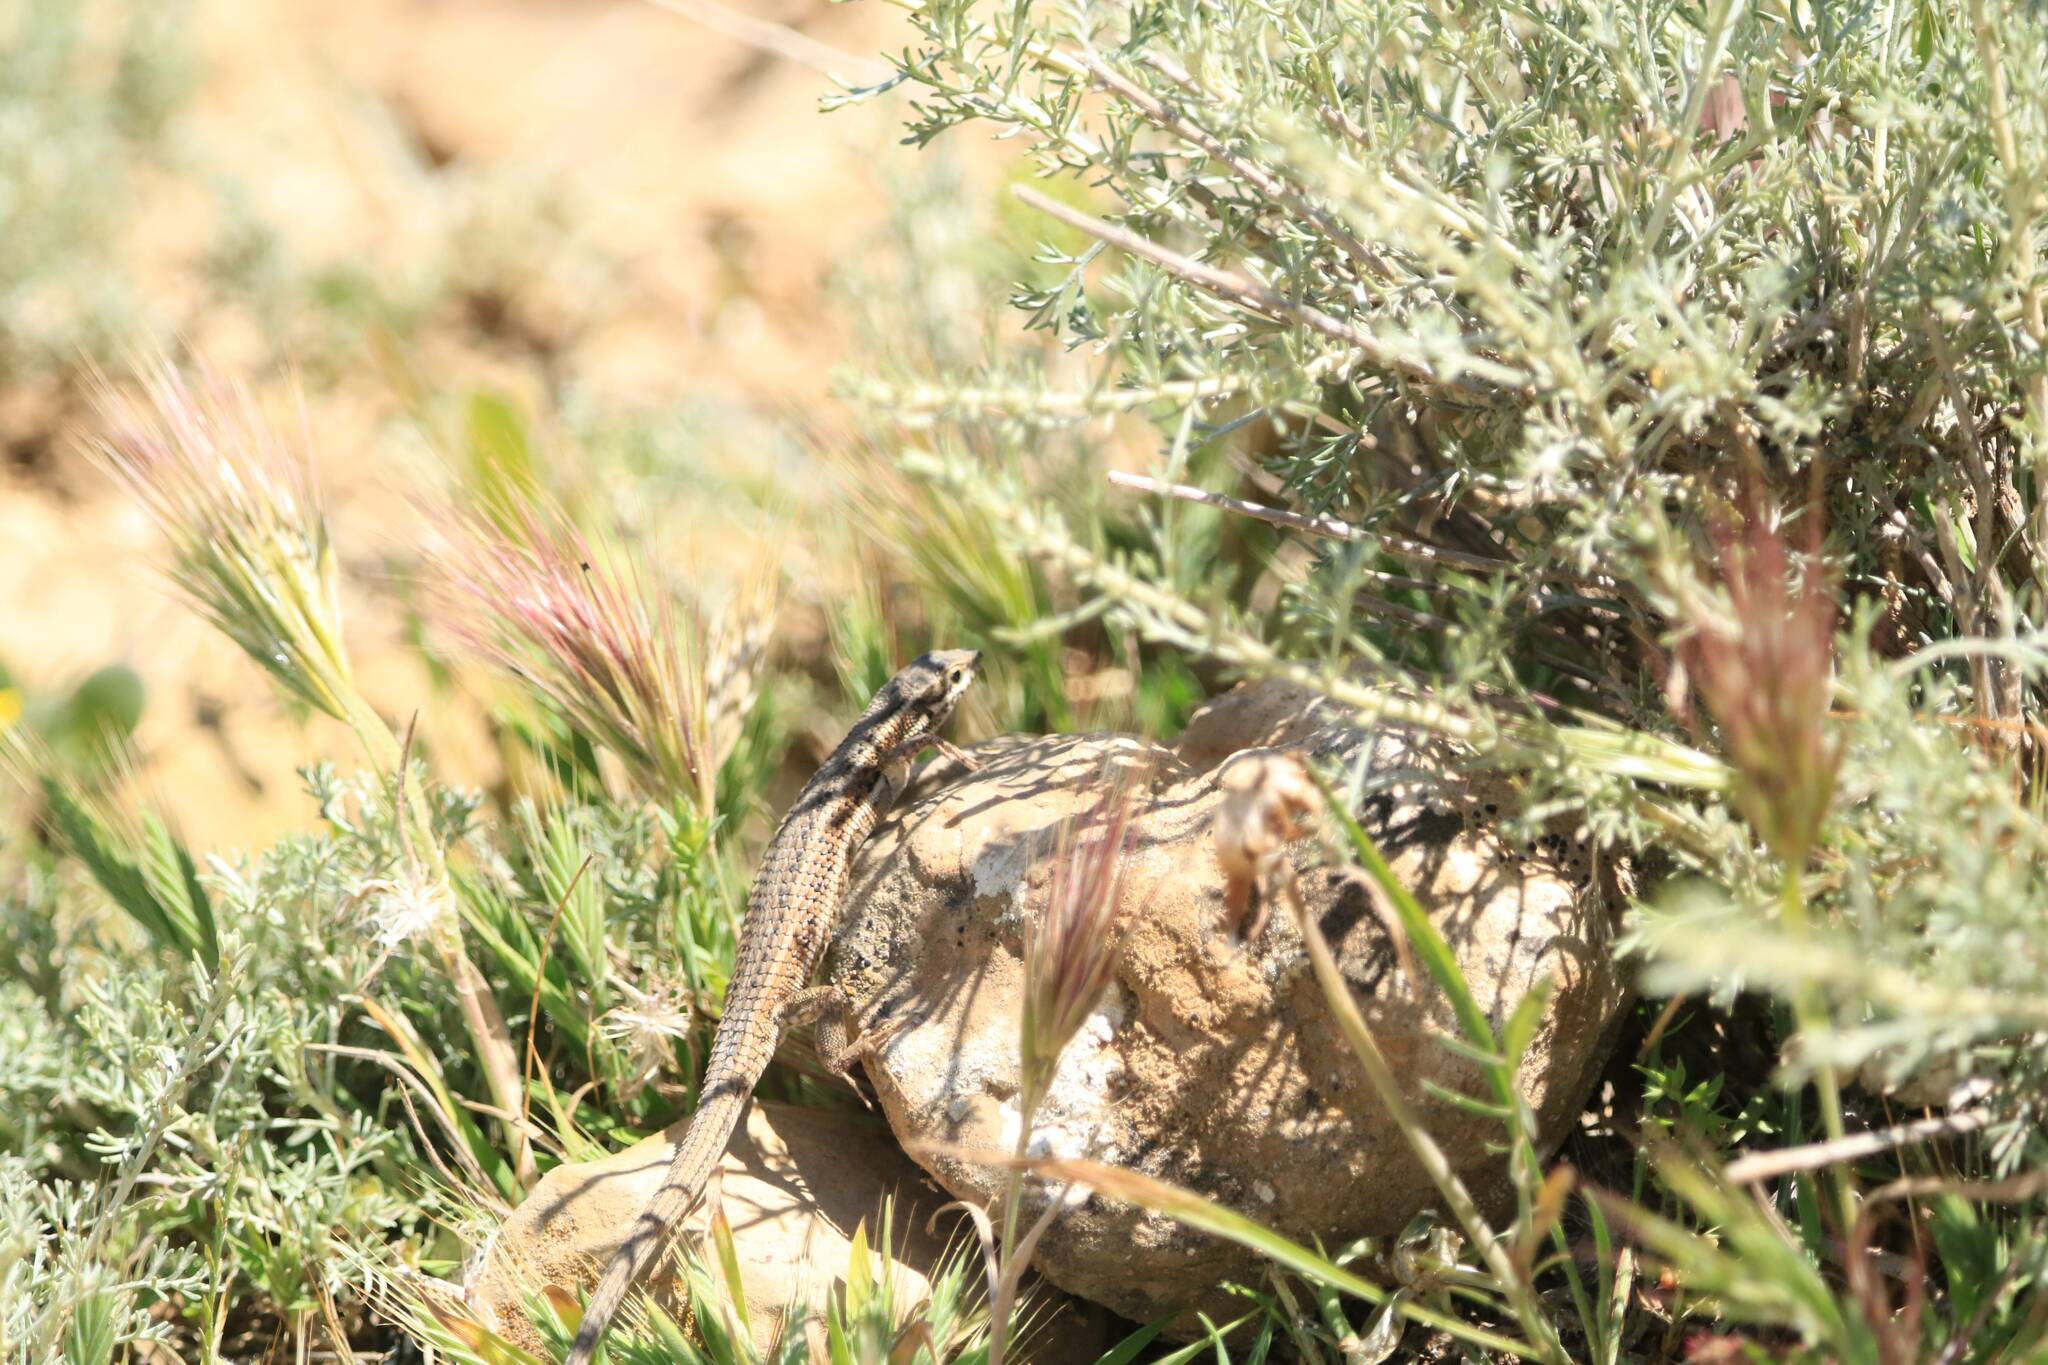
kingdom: Animalia
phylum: Chordata
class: Squamata
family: Lacertidae
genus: Ophisops
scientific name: Ophisops occidentalis
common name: Western snake-eyed lizard
